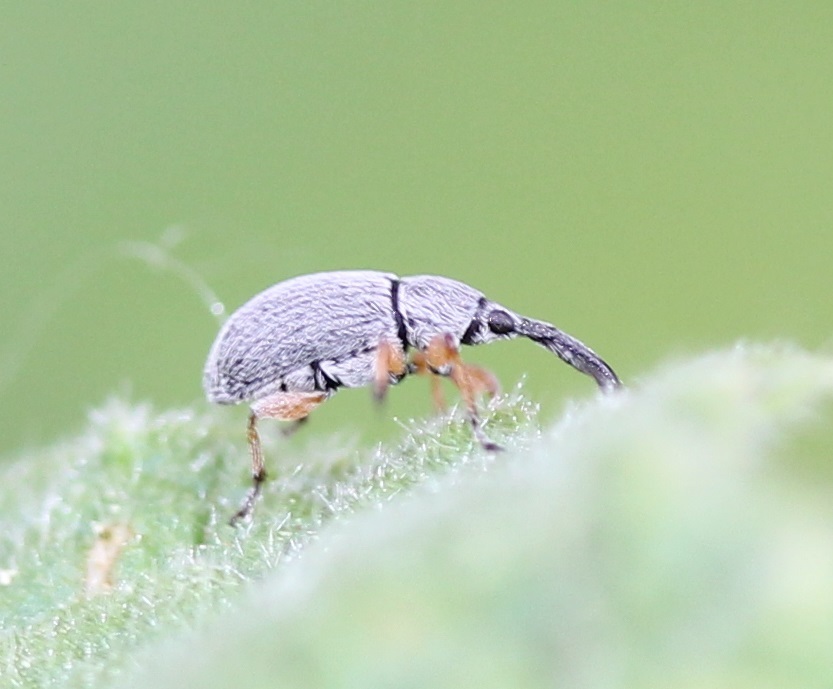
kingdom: Animalia
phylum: Arthropoda
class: Insecta
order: Coleoptera
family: Brentidae
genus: Rhopalapion
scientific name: Rhopalapion longirostre
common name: Hollyhock weevil
